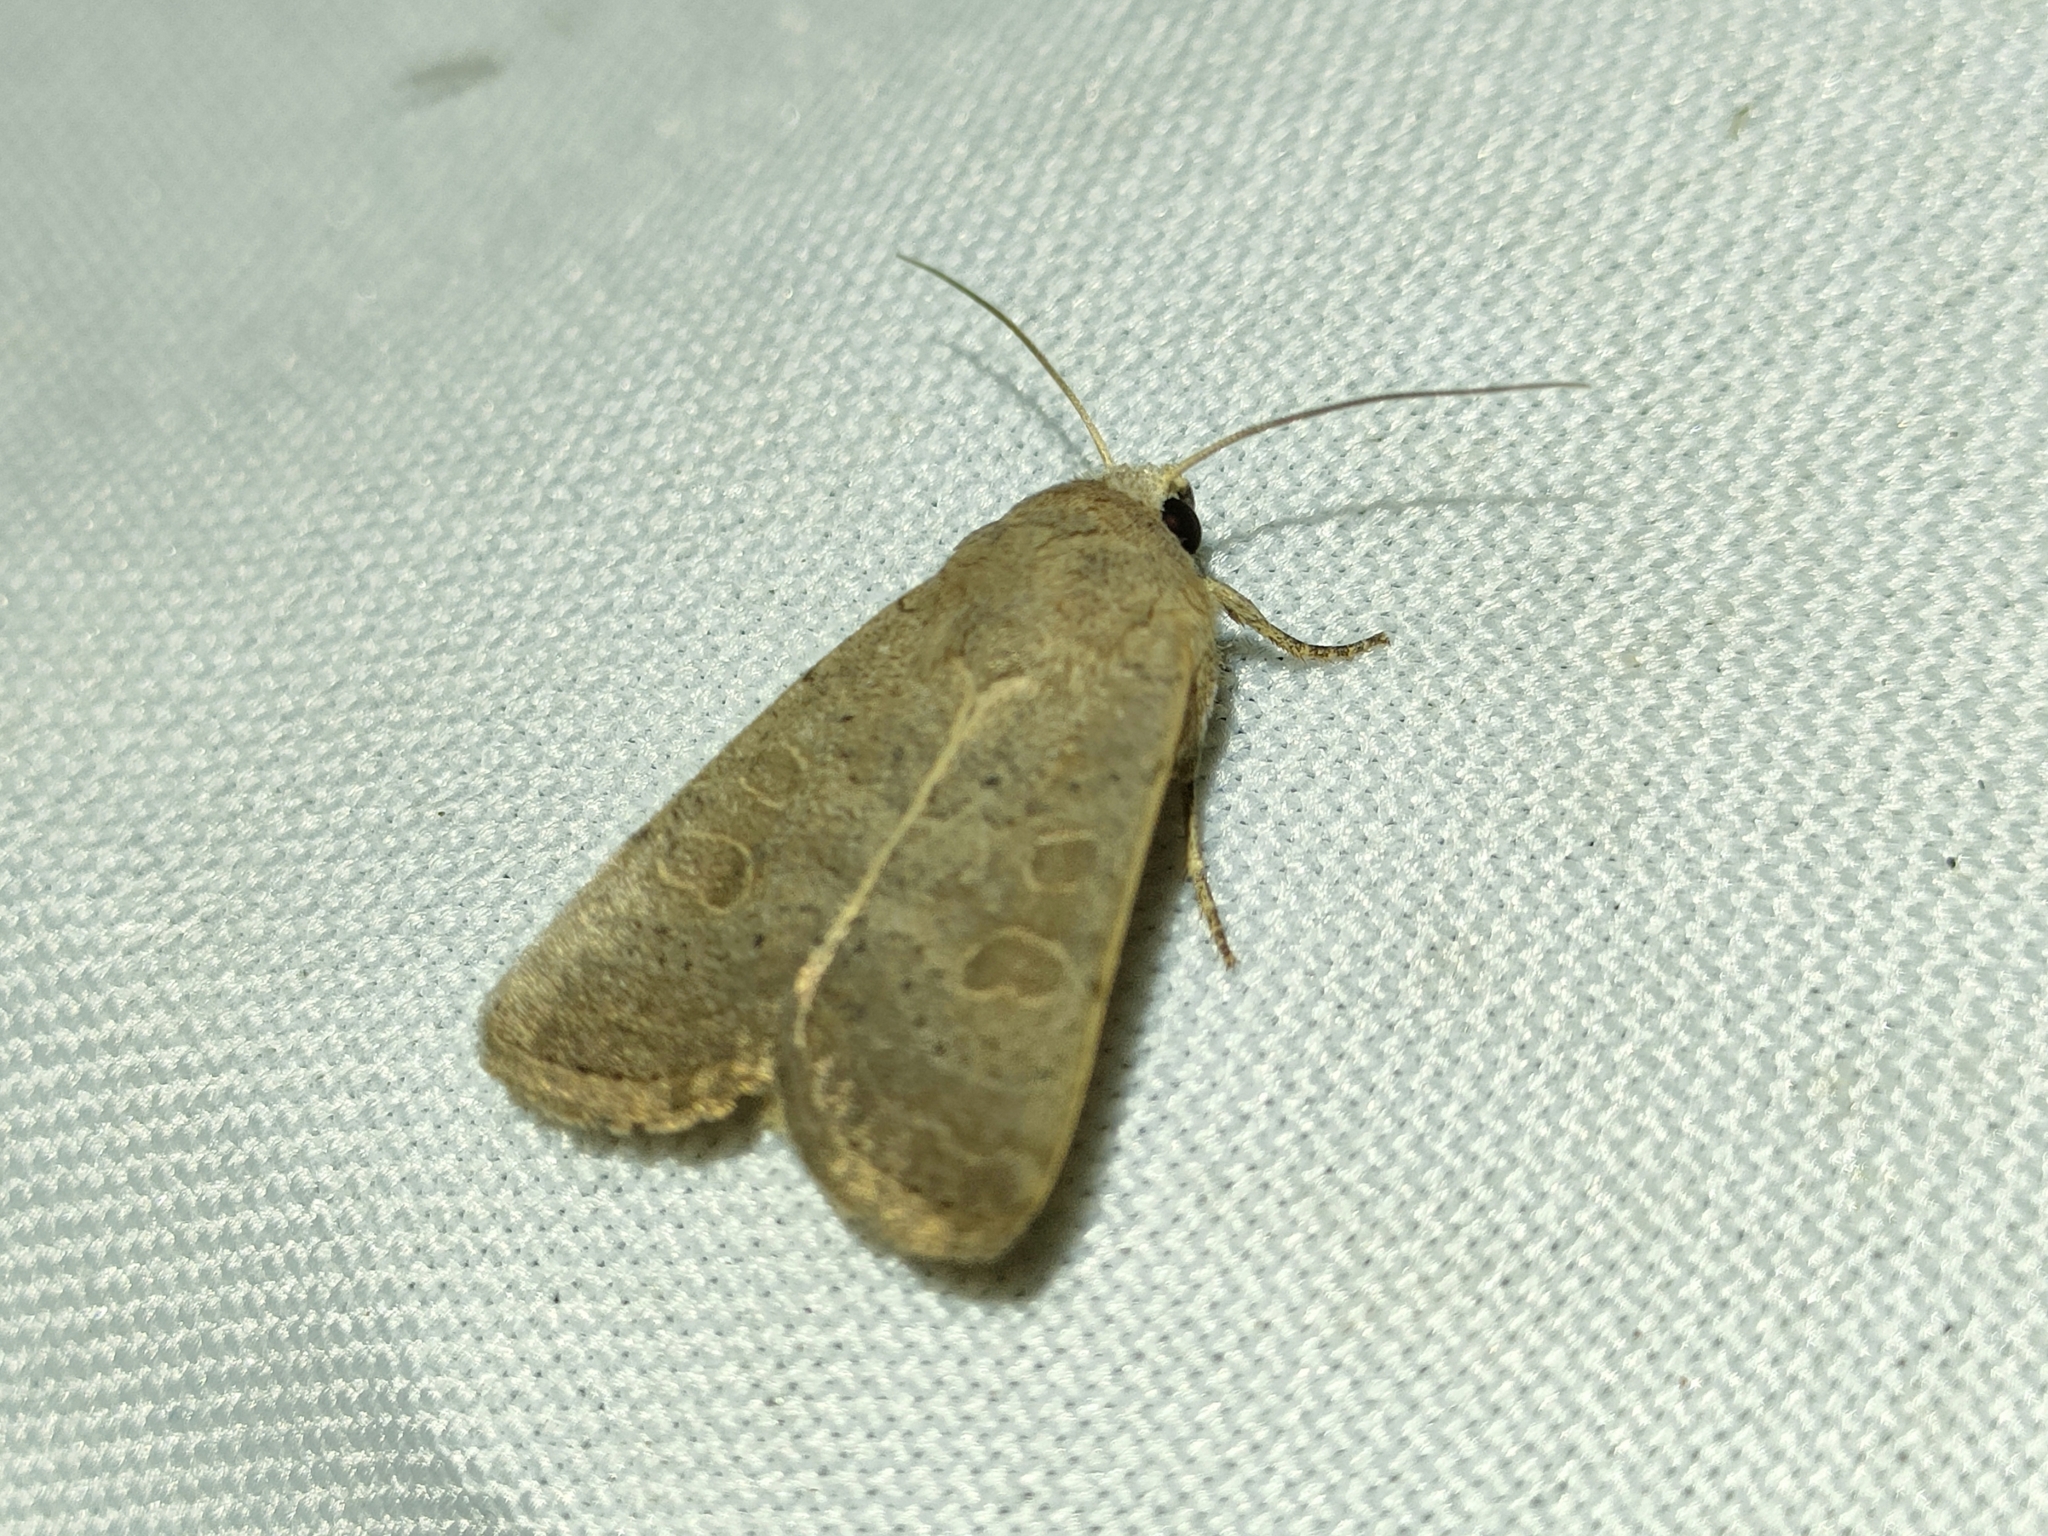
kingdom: Animalia
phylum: Arthropoda
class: Insecta
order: Lepidoptera
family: Noctuidae
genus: Hoplodrina
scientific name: Hoplodrina ambigua
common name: Vine's rustic
